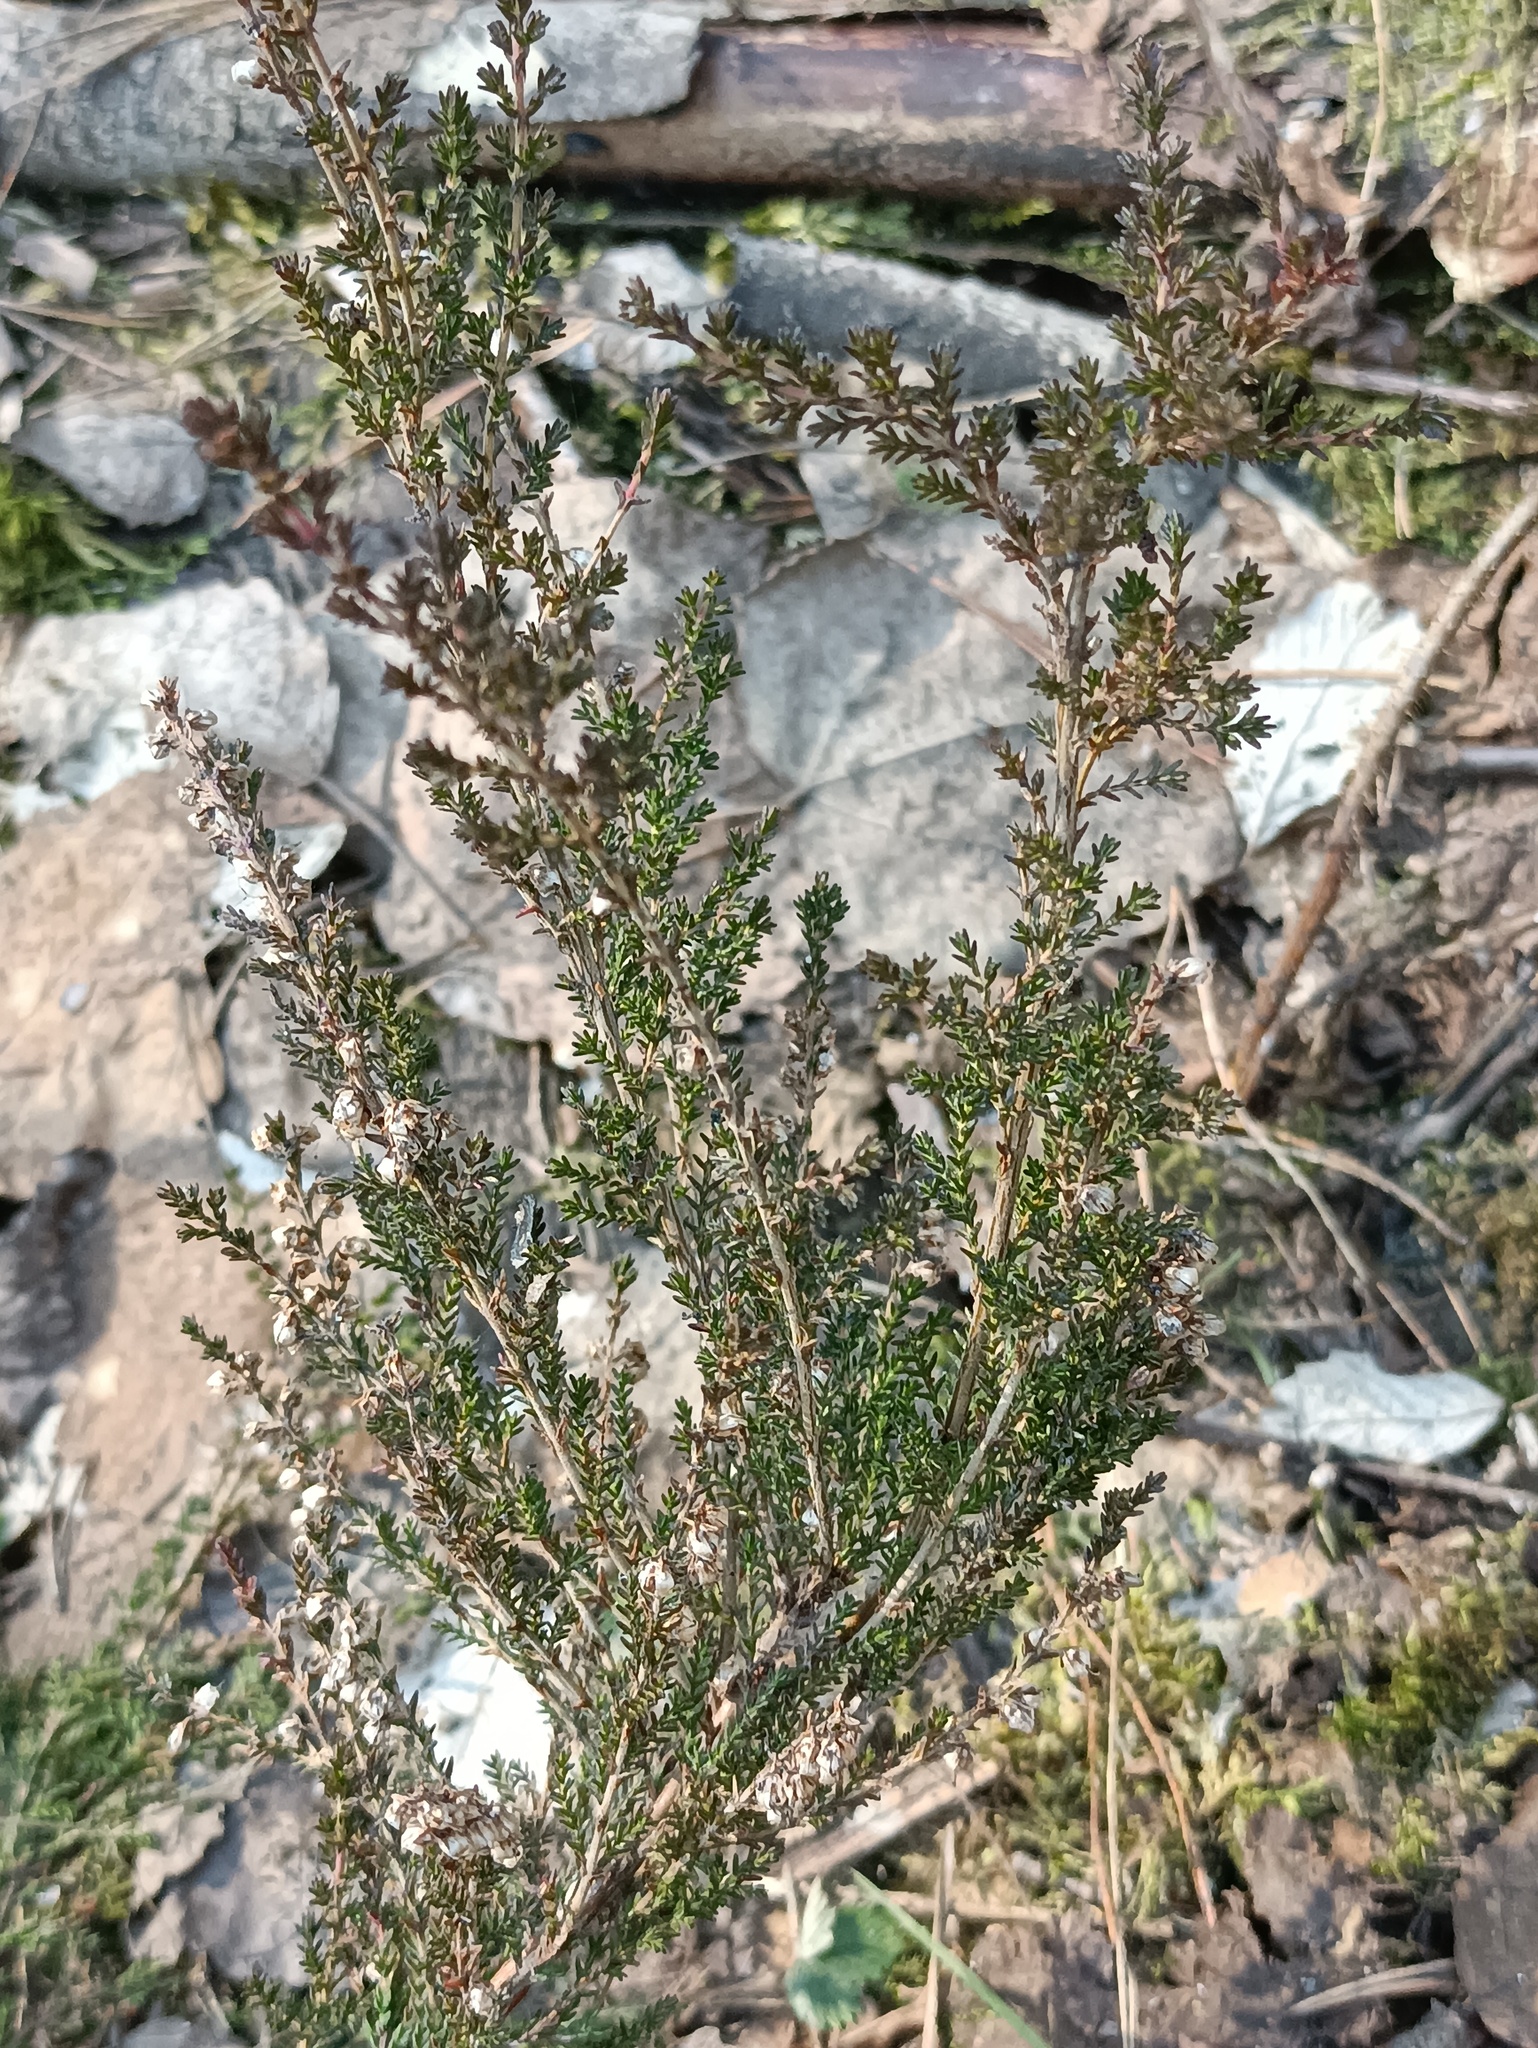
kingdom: Plantae
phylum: Tracheophyta
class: Magnoliopsida
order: Ericales
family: Ericaceae
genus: Calluna
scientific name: Calluna vulgaris
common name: Heather
